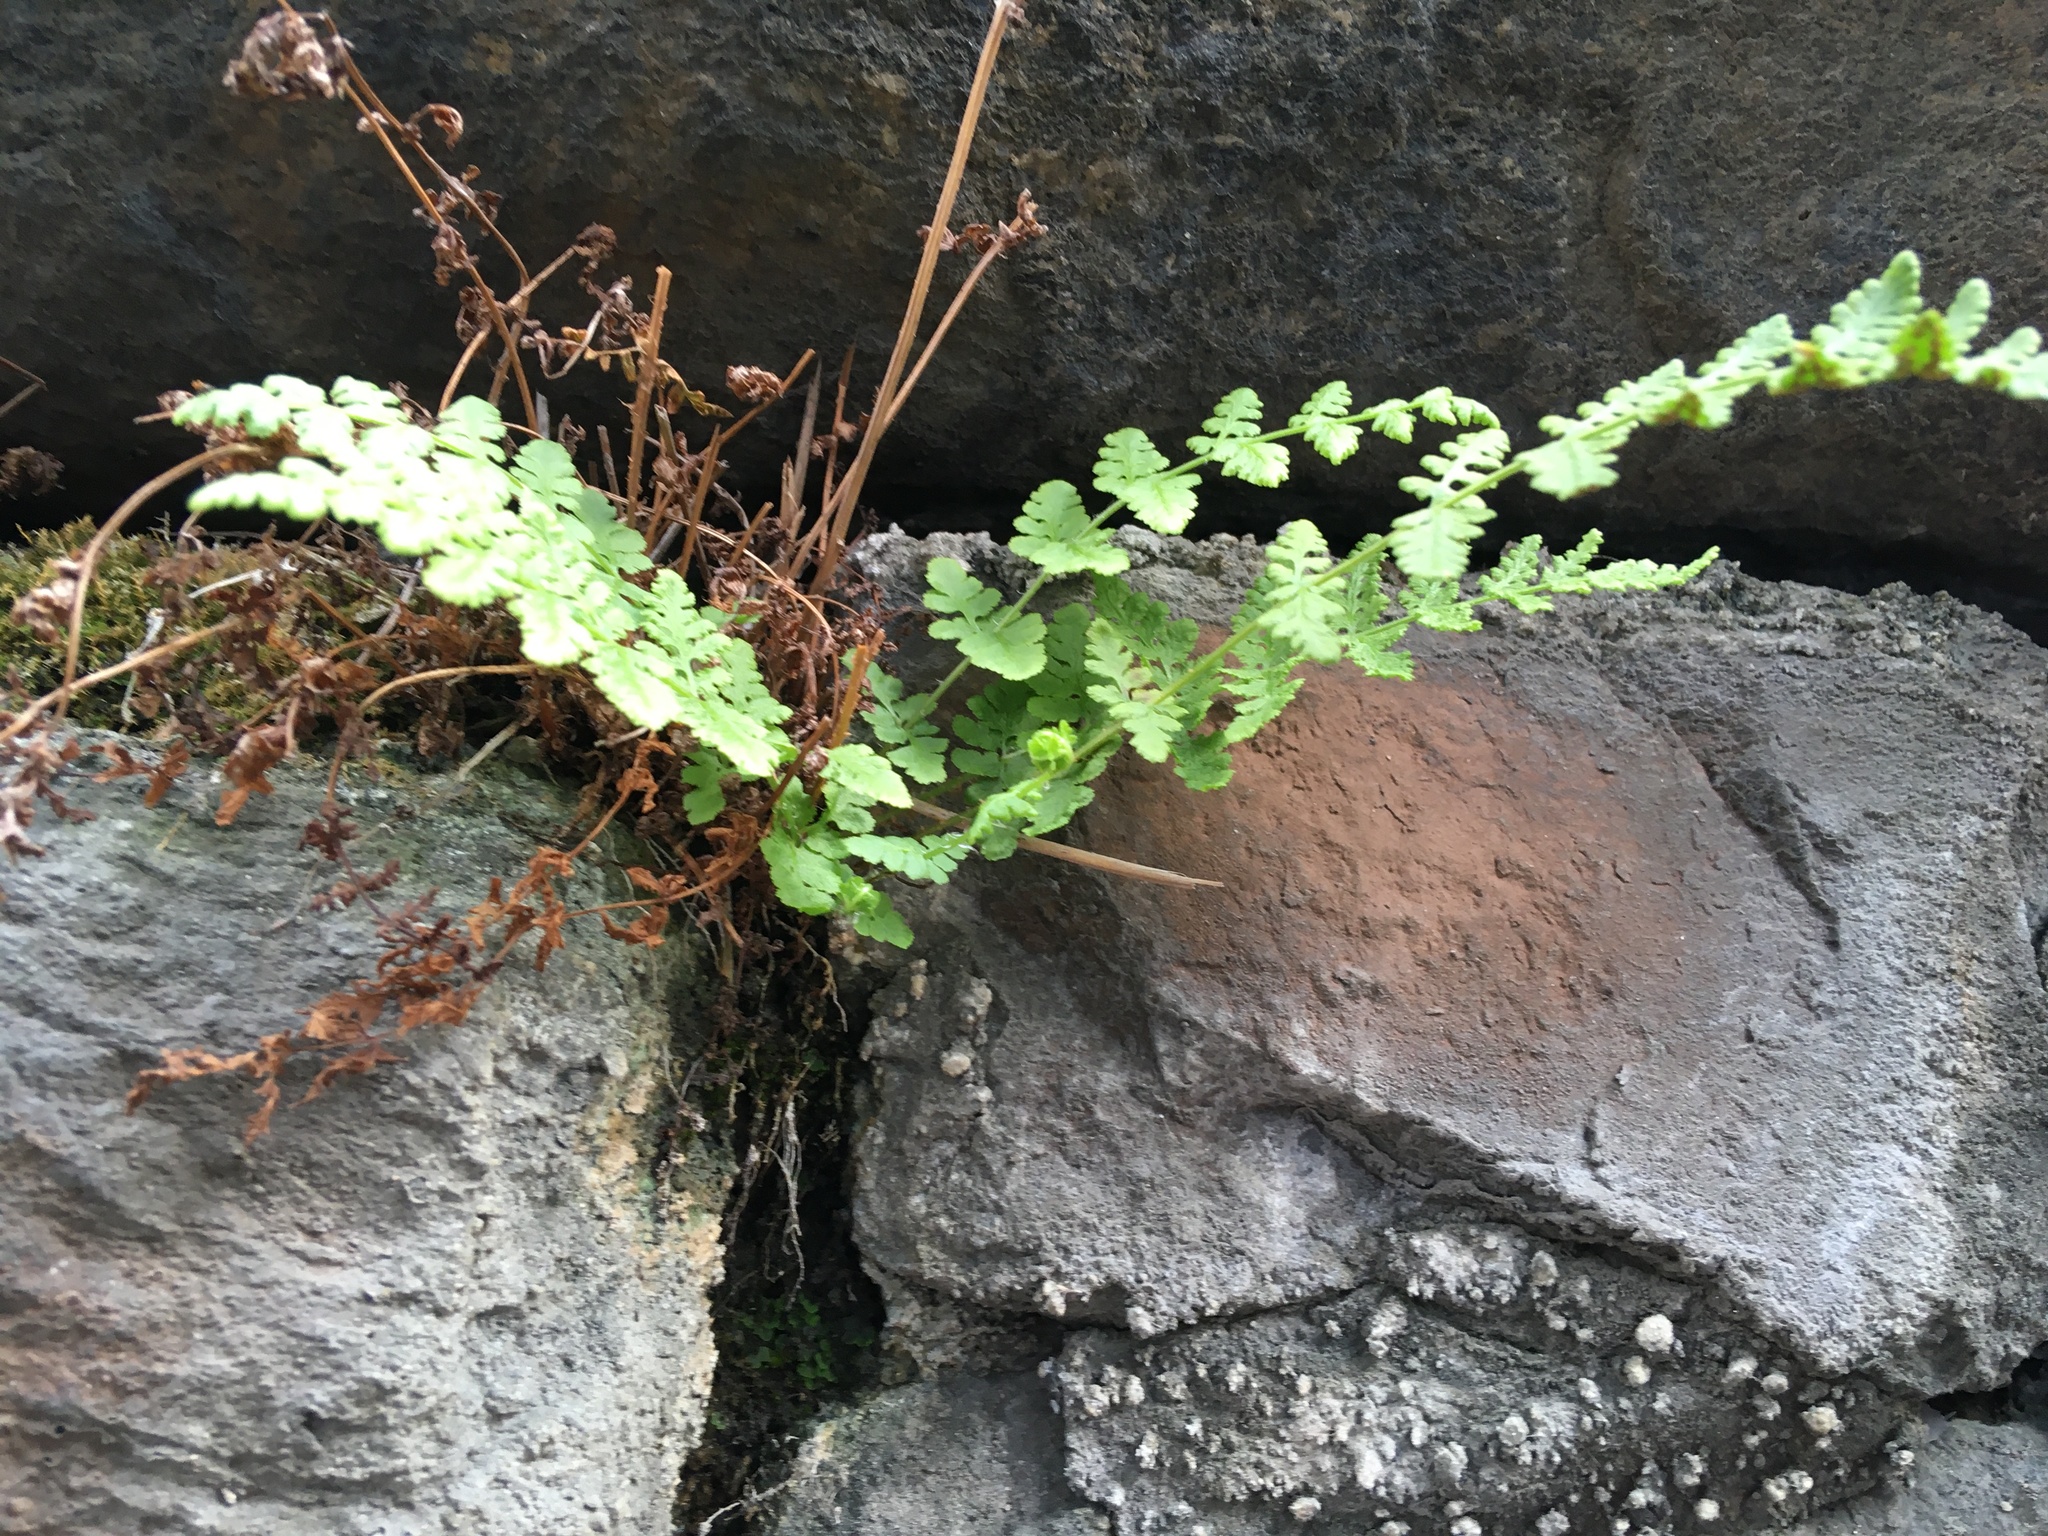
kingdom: Plantae
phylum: Tracheophyta
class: Polypodiopsida
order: Polypodiales
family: Woodsiaceae
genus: Physematium
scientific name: Physematium obtusum
